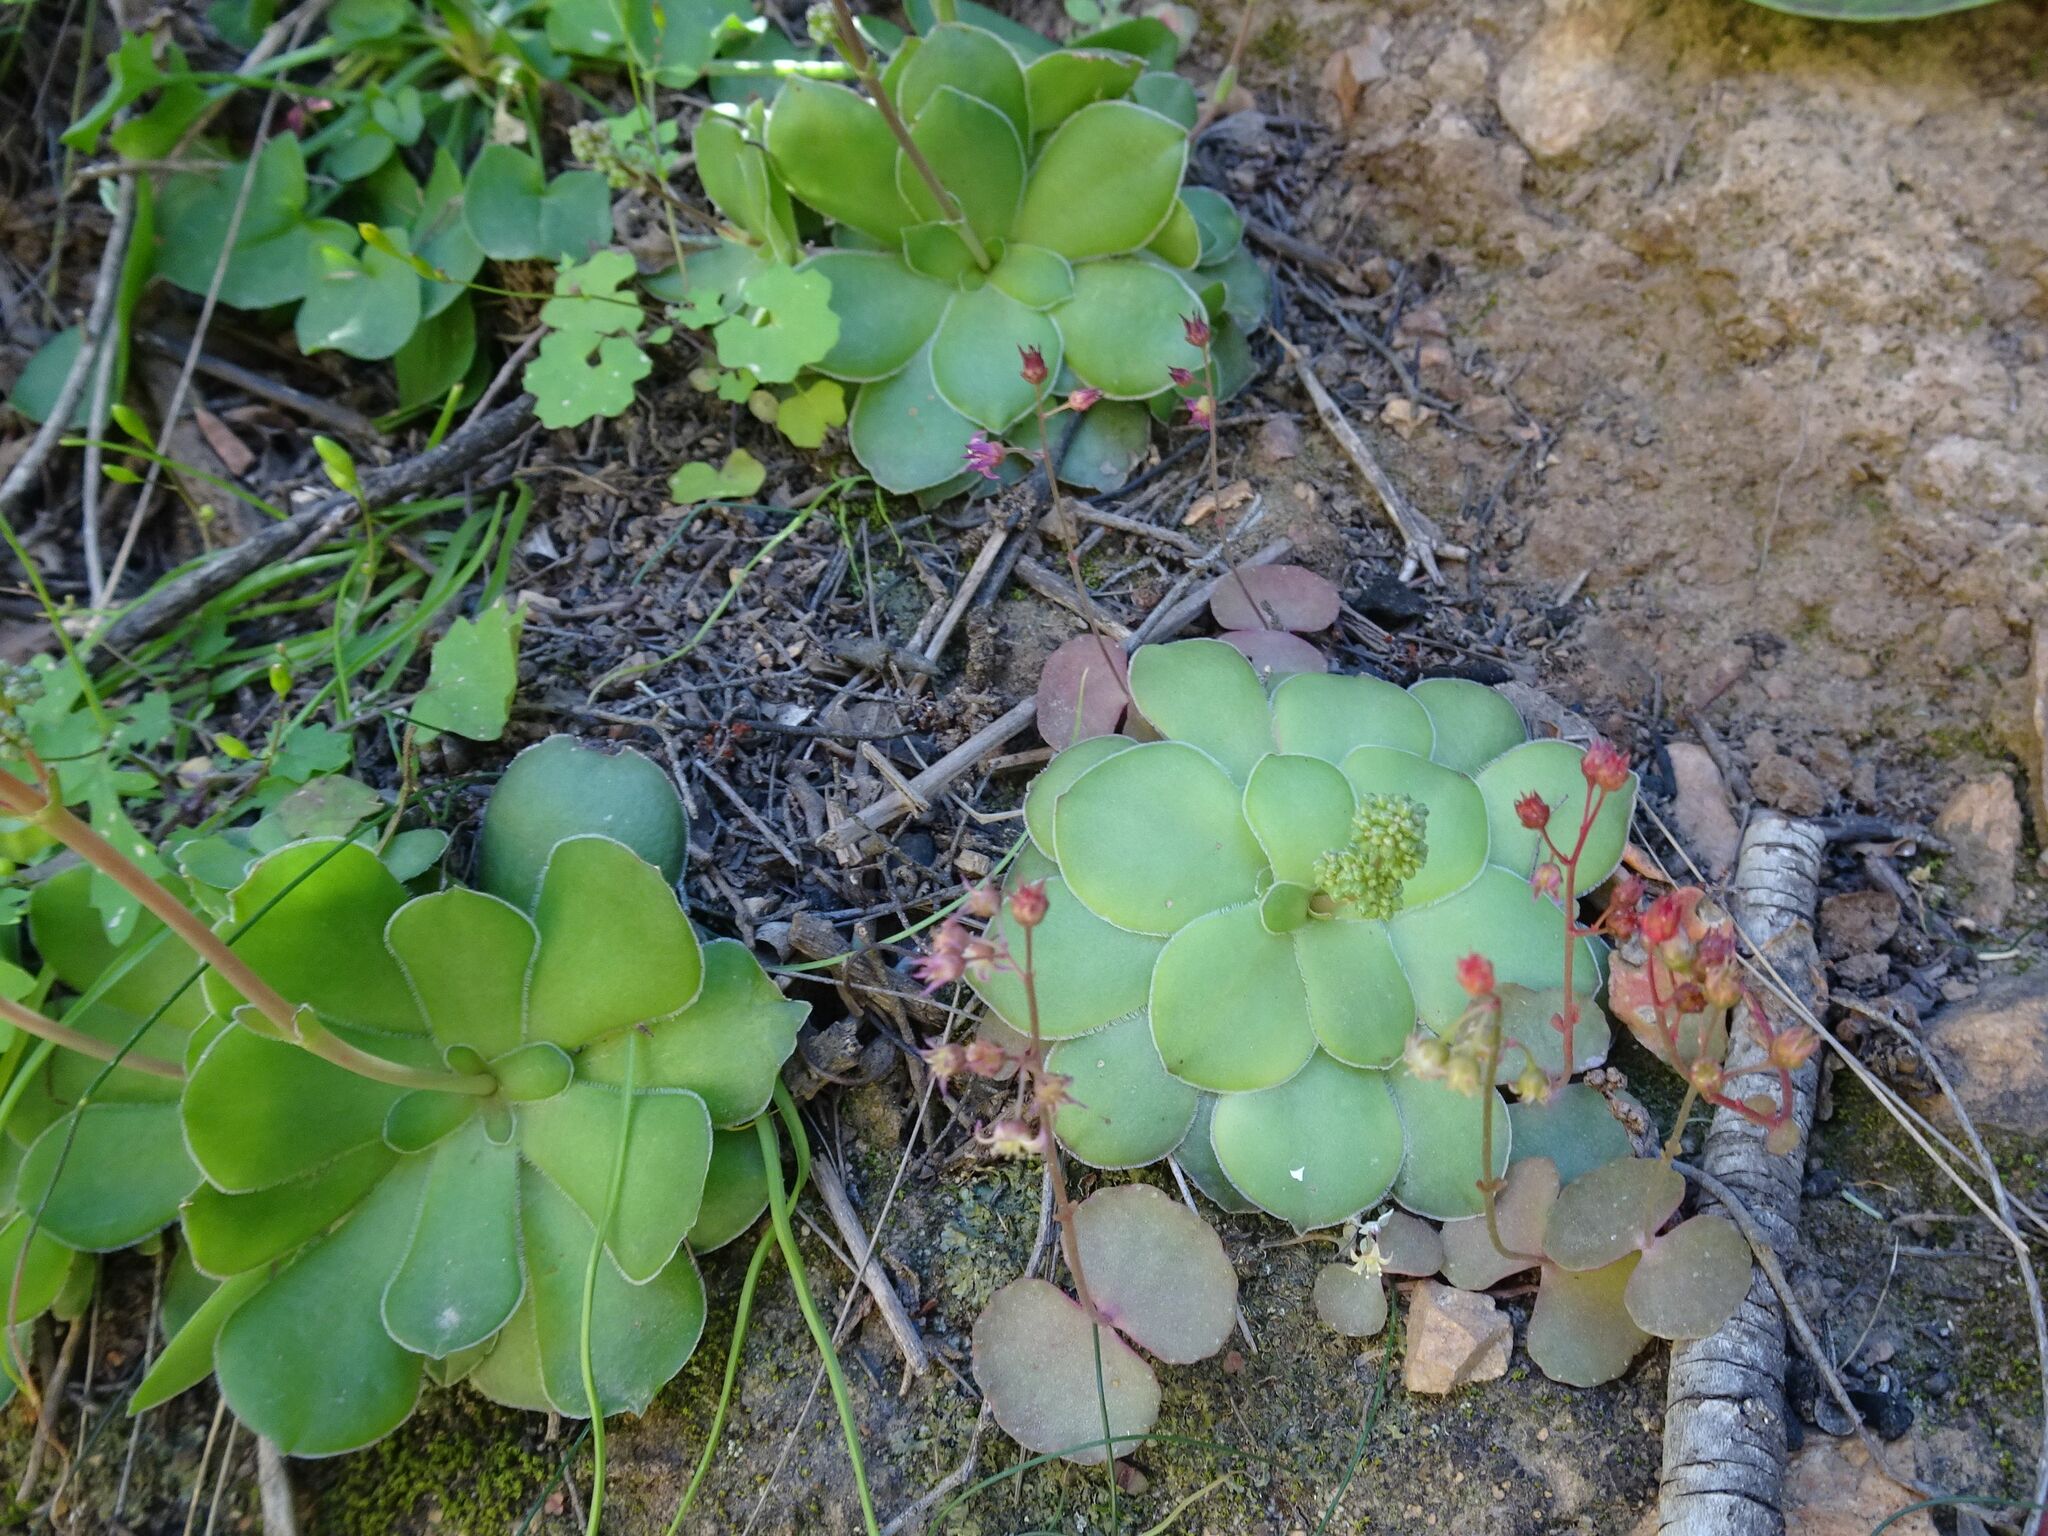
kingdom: Plantae
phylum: Tracheophyta
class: Magnoliopsida
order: Saxifragales
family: Crassulaceae
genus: Crassula
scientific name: Crassula orbicularis
